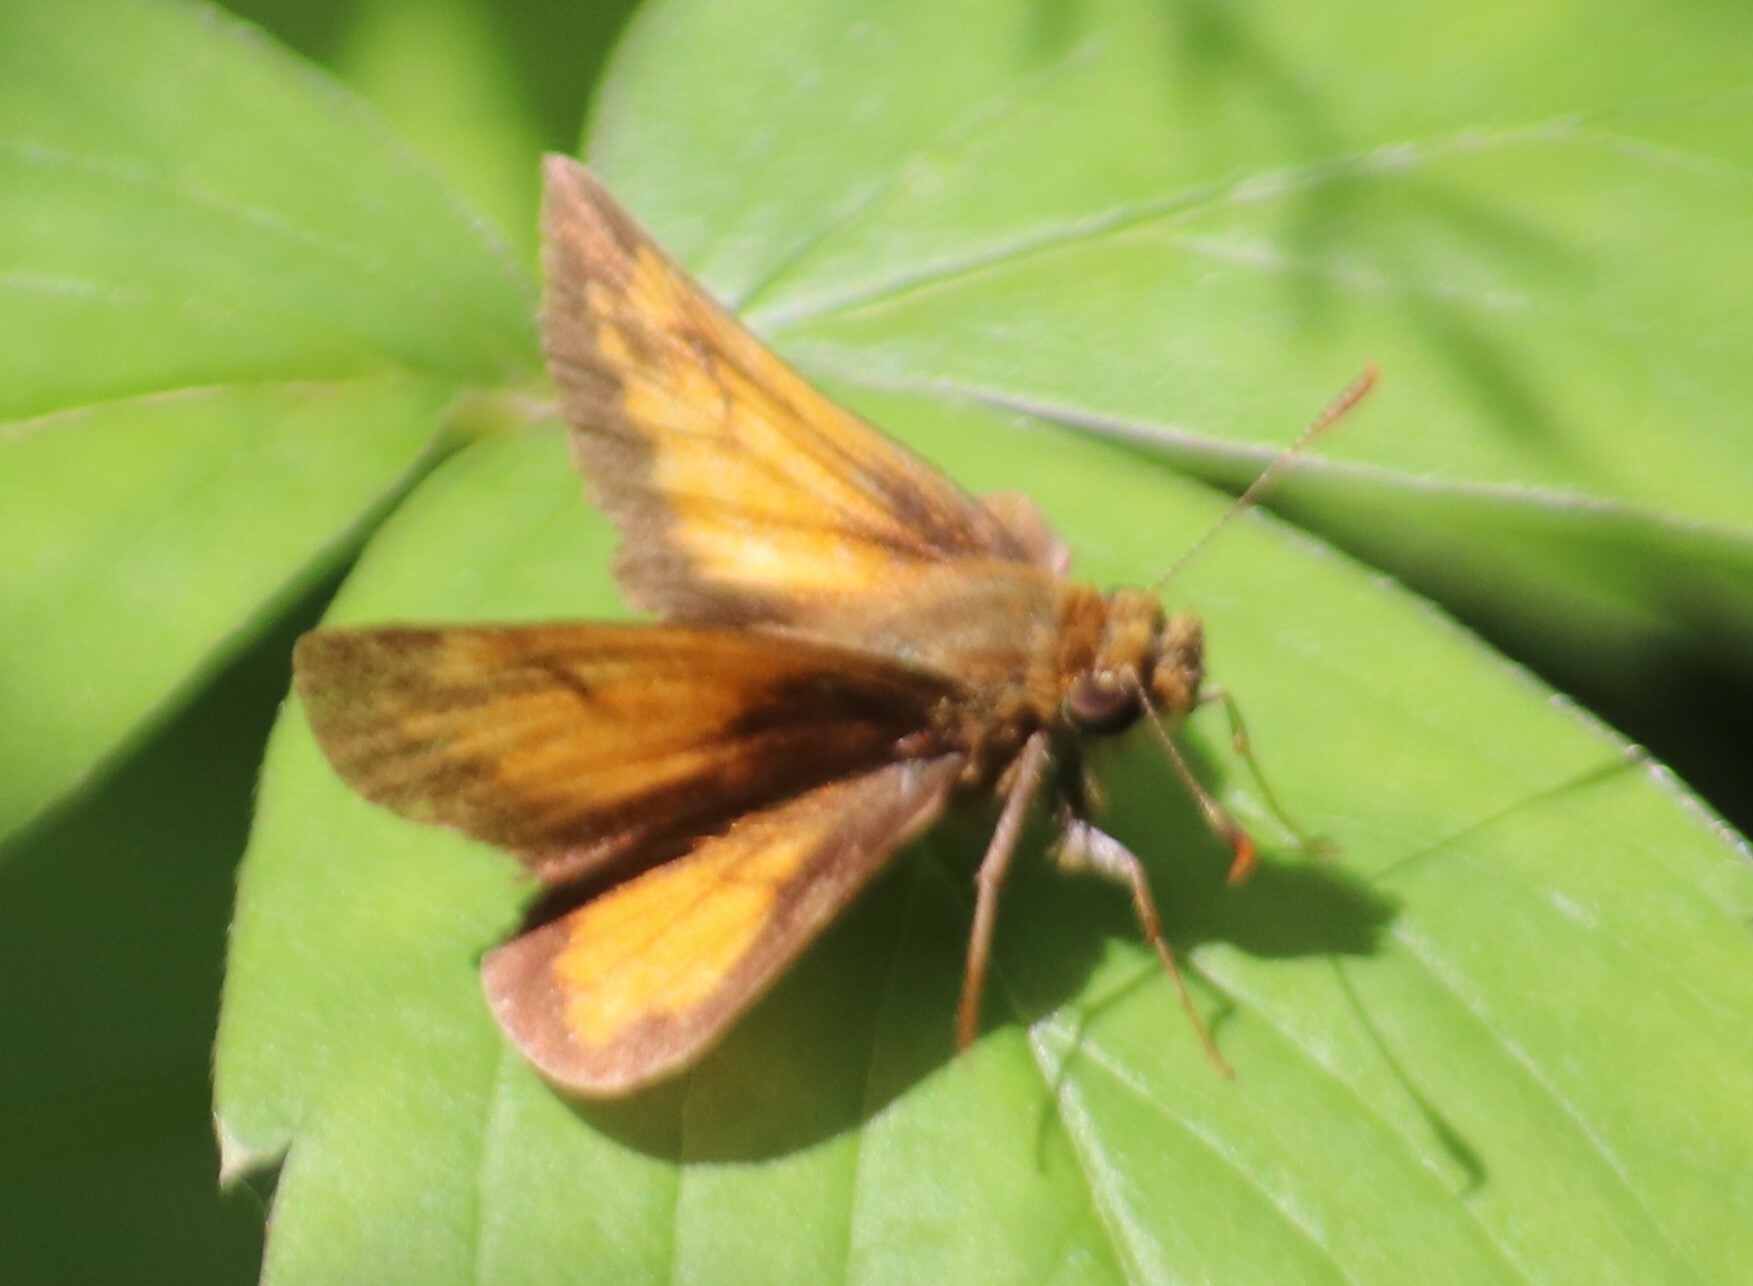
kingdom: Animalia
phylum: Arthropoda
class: Insecta
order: Lepidoptera
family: Hesperiidae
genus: Lon
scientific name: Lon hobomok
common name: Hobomok skipper
